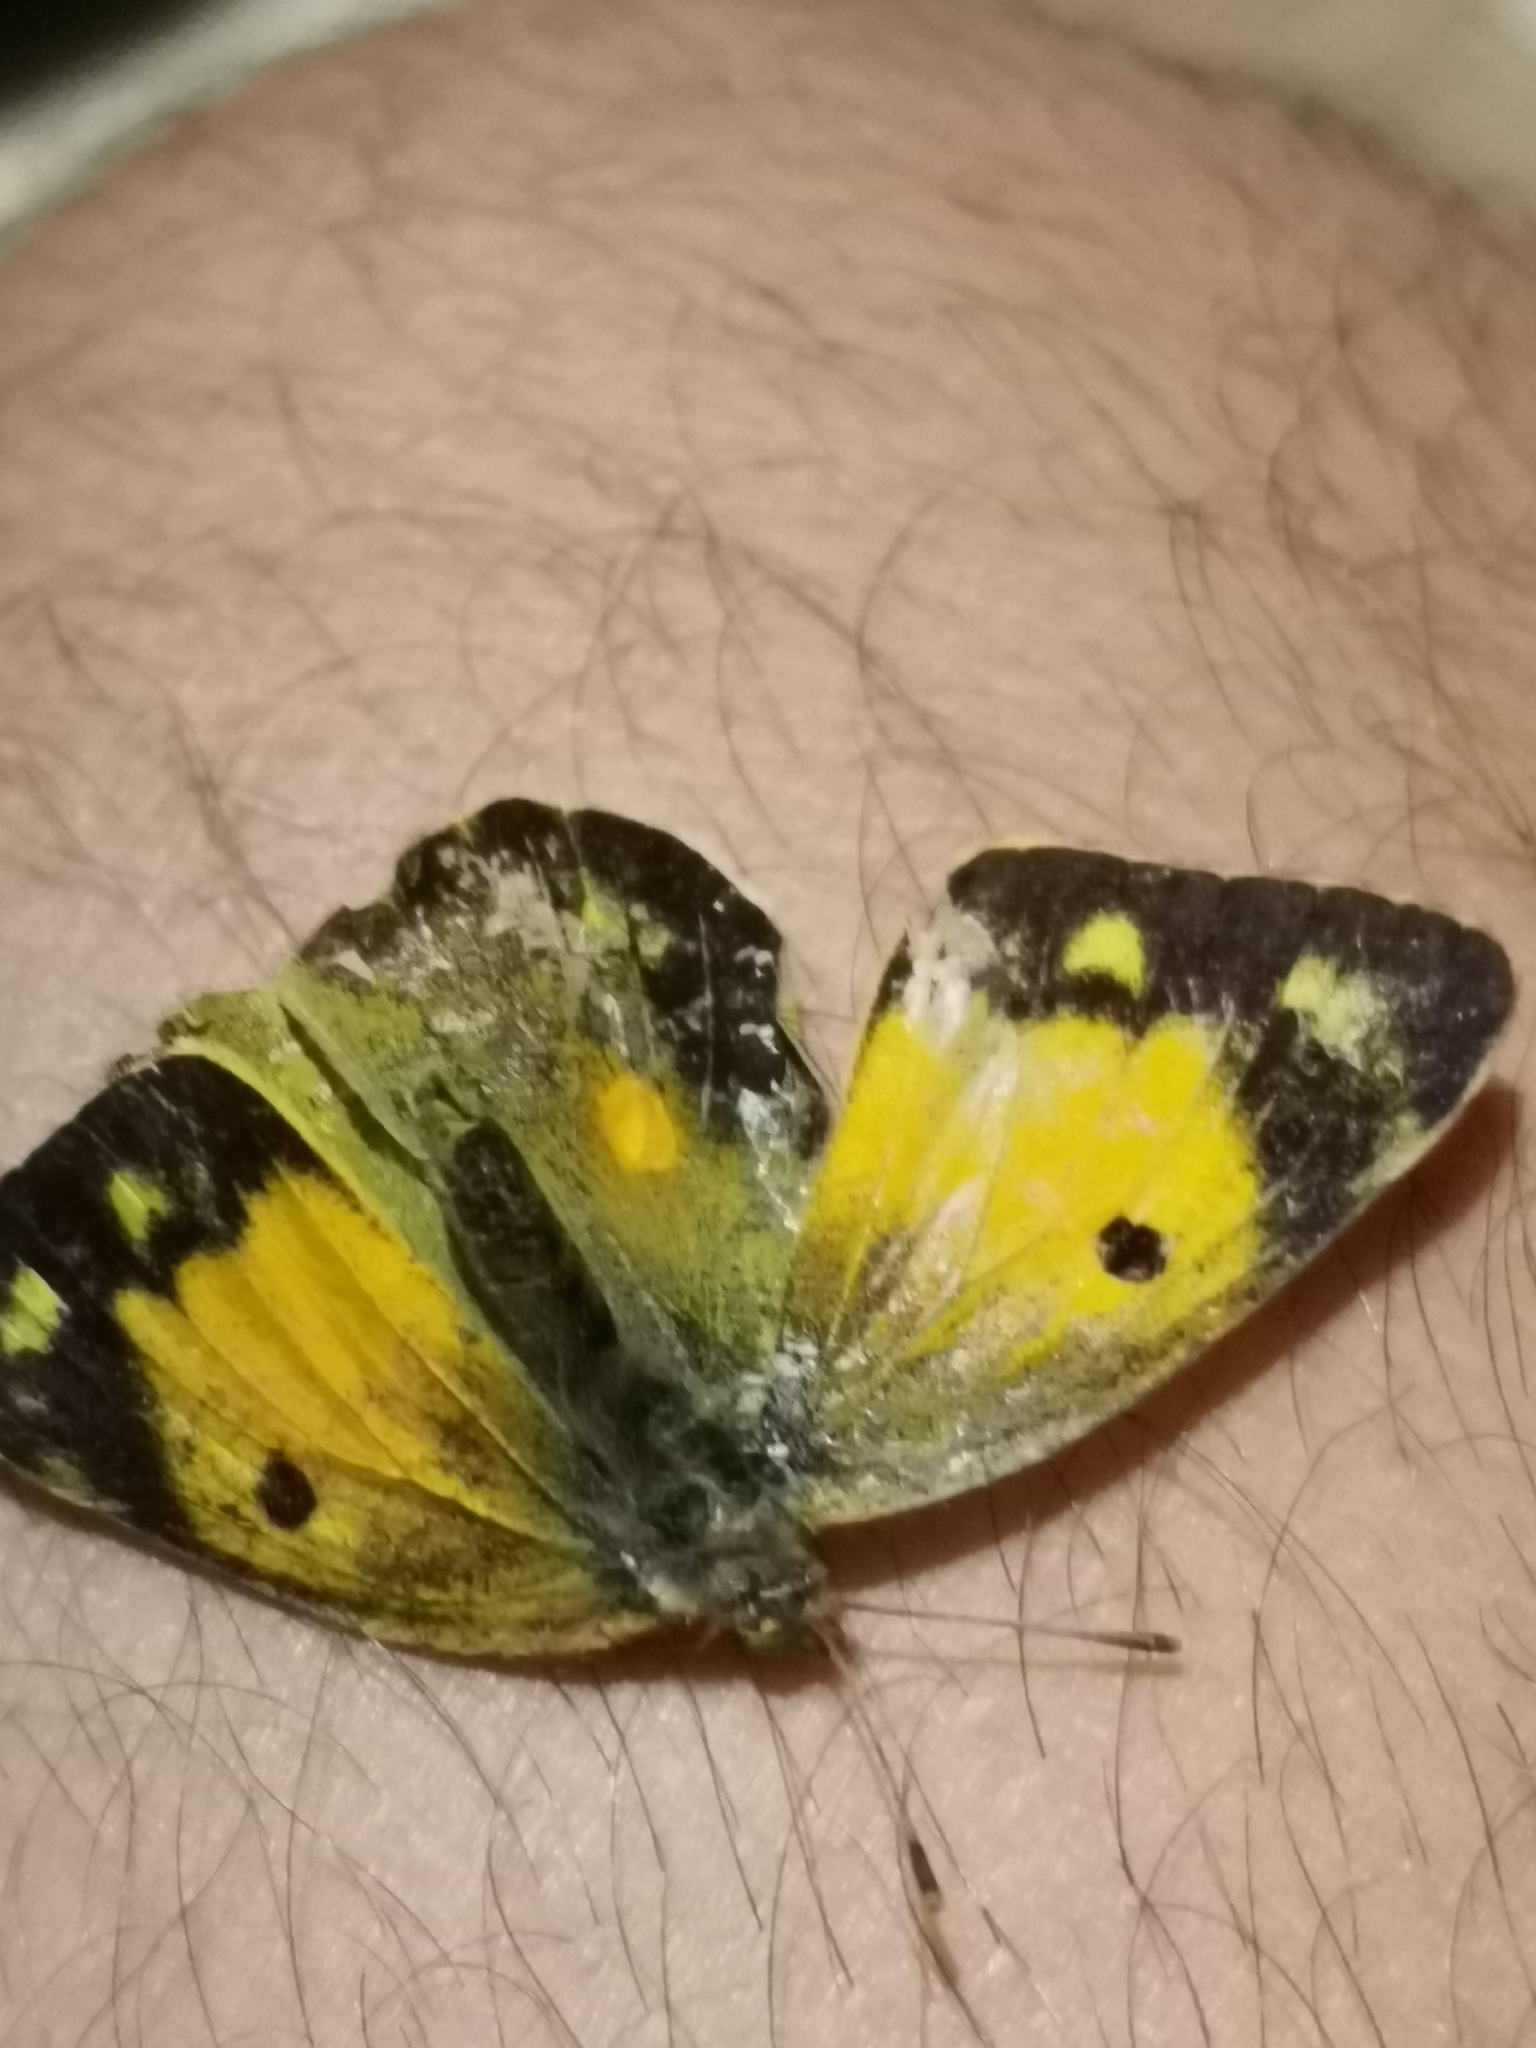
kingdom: Animalia
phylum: Arthropoda
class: Insecta
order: Lepidoptera
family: Pieridae
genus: Colias
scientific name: Colias croceus
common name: Clouded yellow
